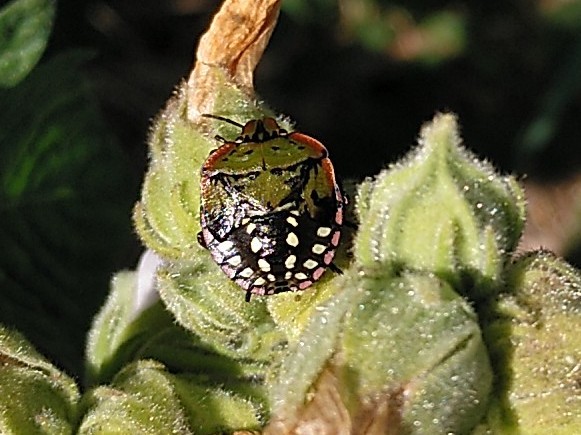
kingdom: Animalia
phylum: Arthropoda
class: Insecta
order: Hemiptera
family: Pentatomidae
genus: Nezara
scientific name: Nezara viridula
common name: Southern green stink bug
